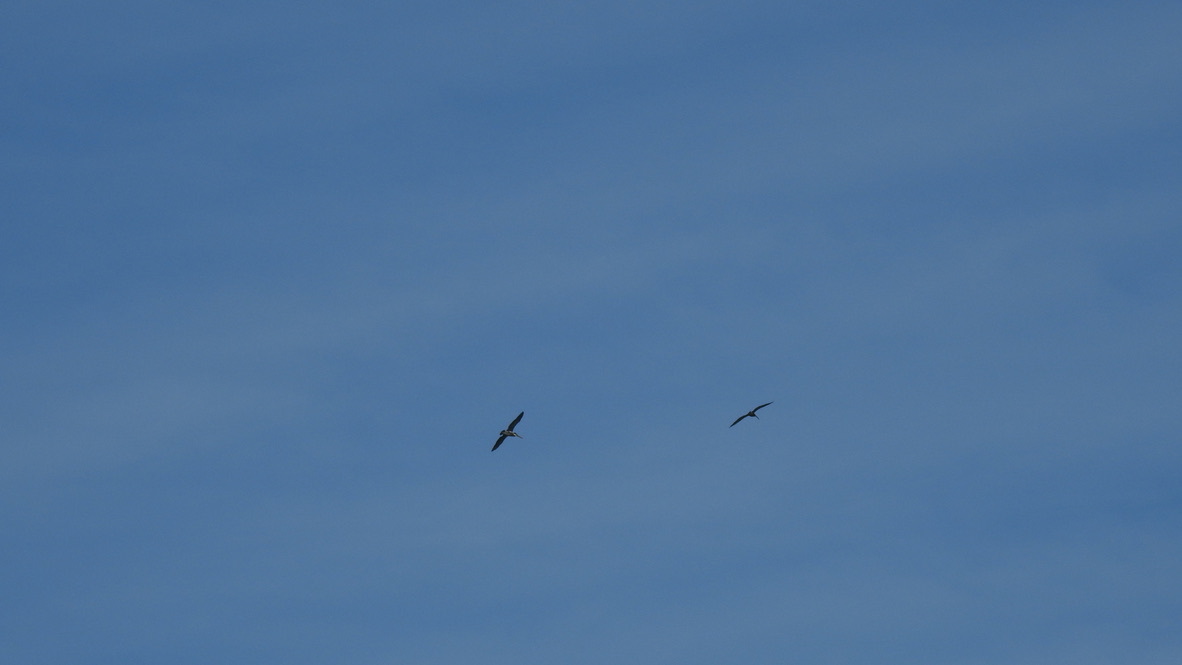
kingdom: Animalia
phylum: Chordata
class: Aves
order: Pelecaniformes
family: Pelecanidae
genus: Pelecanus
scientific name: Pelecanus occidentalis
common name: Brown pelican
